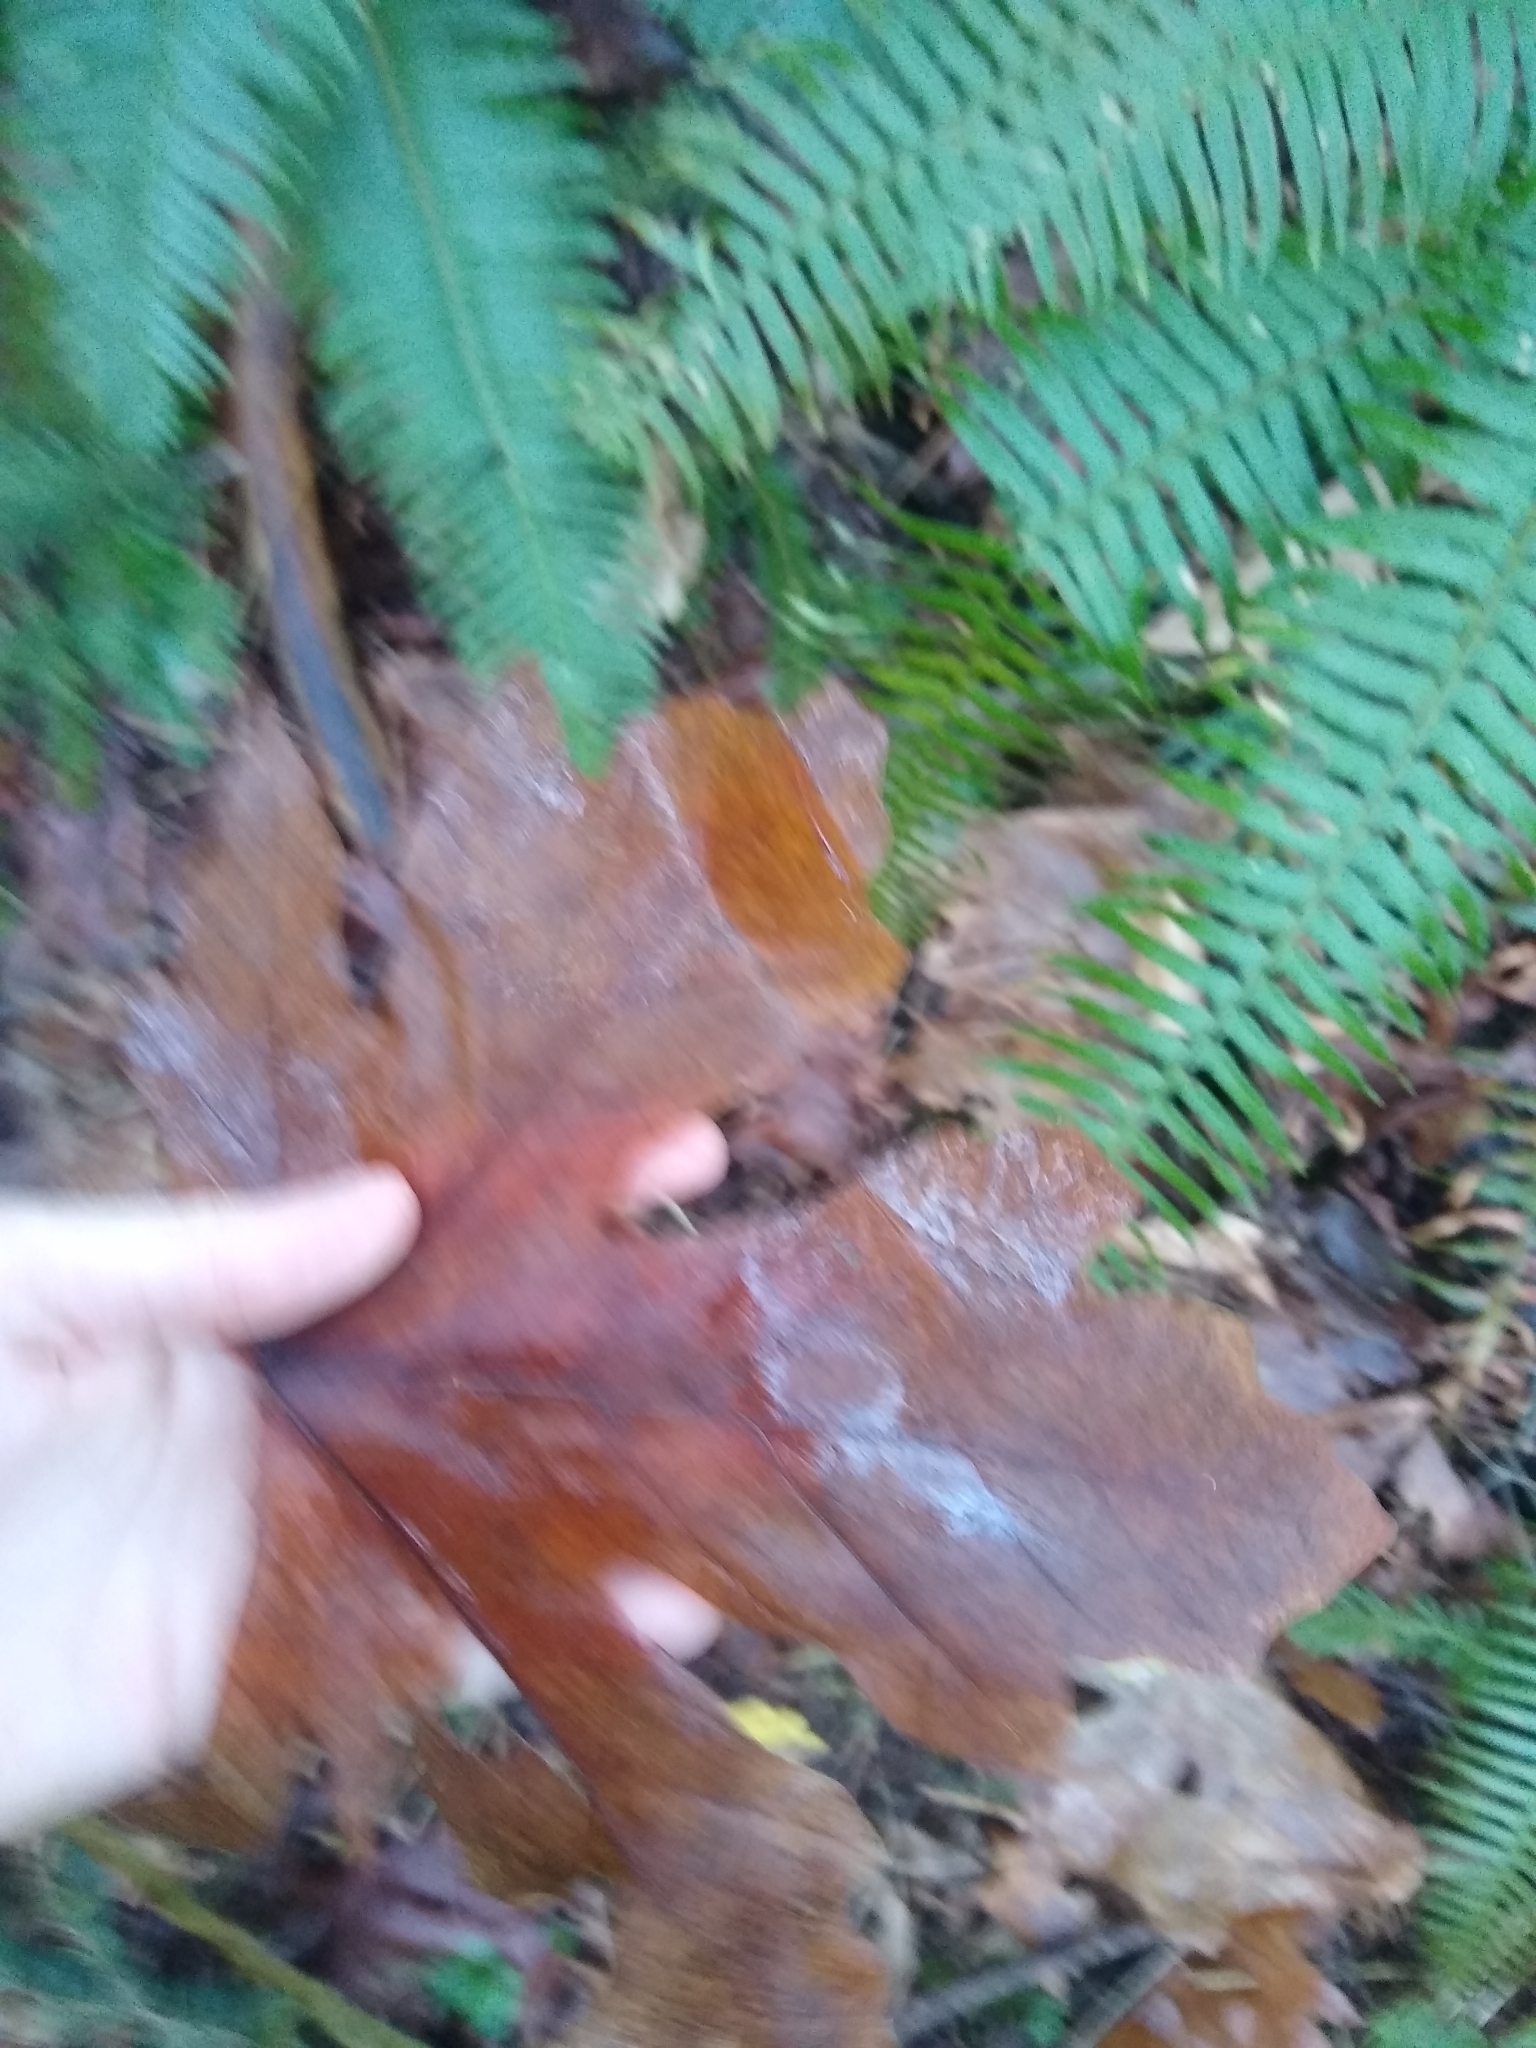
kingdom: Plantae
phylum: Tracheophyta
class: Magnoliopsida
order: Sapindales
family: Sapindaceae
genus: Acer
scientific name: Acer macrophyllum
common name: Oregon maple
